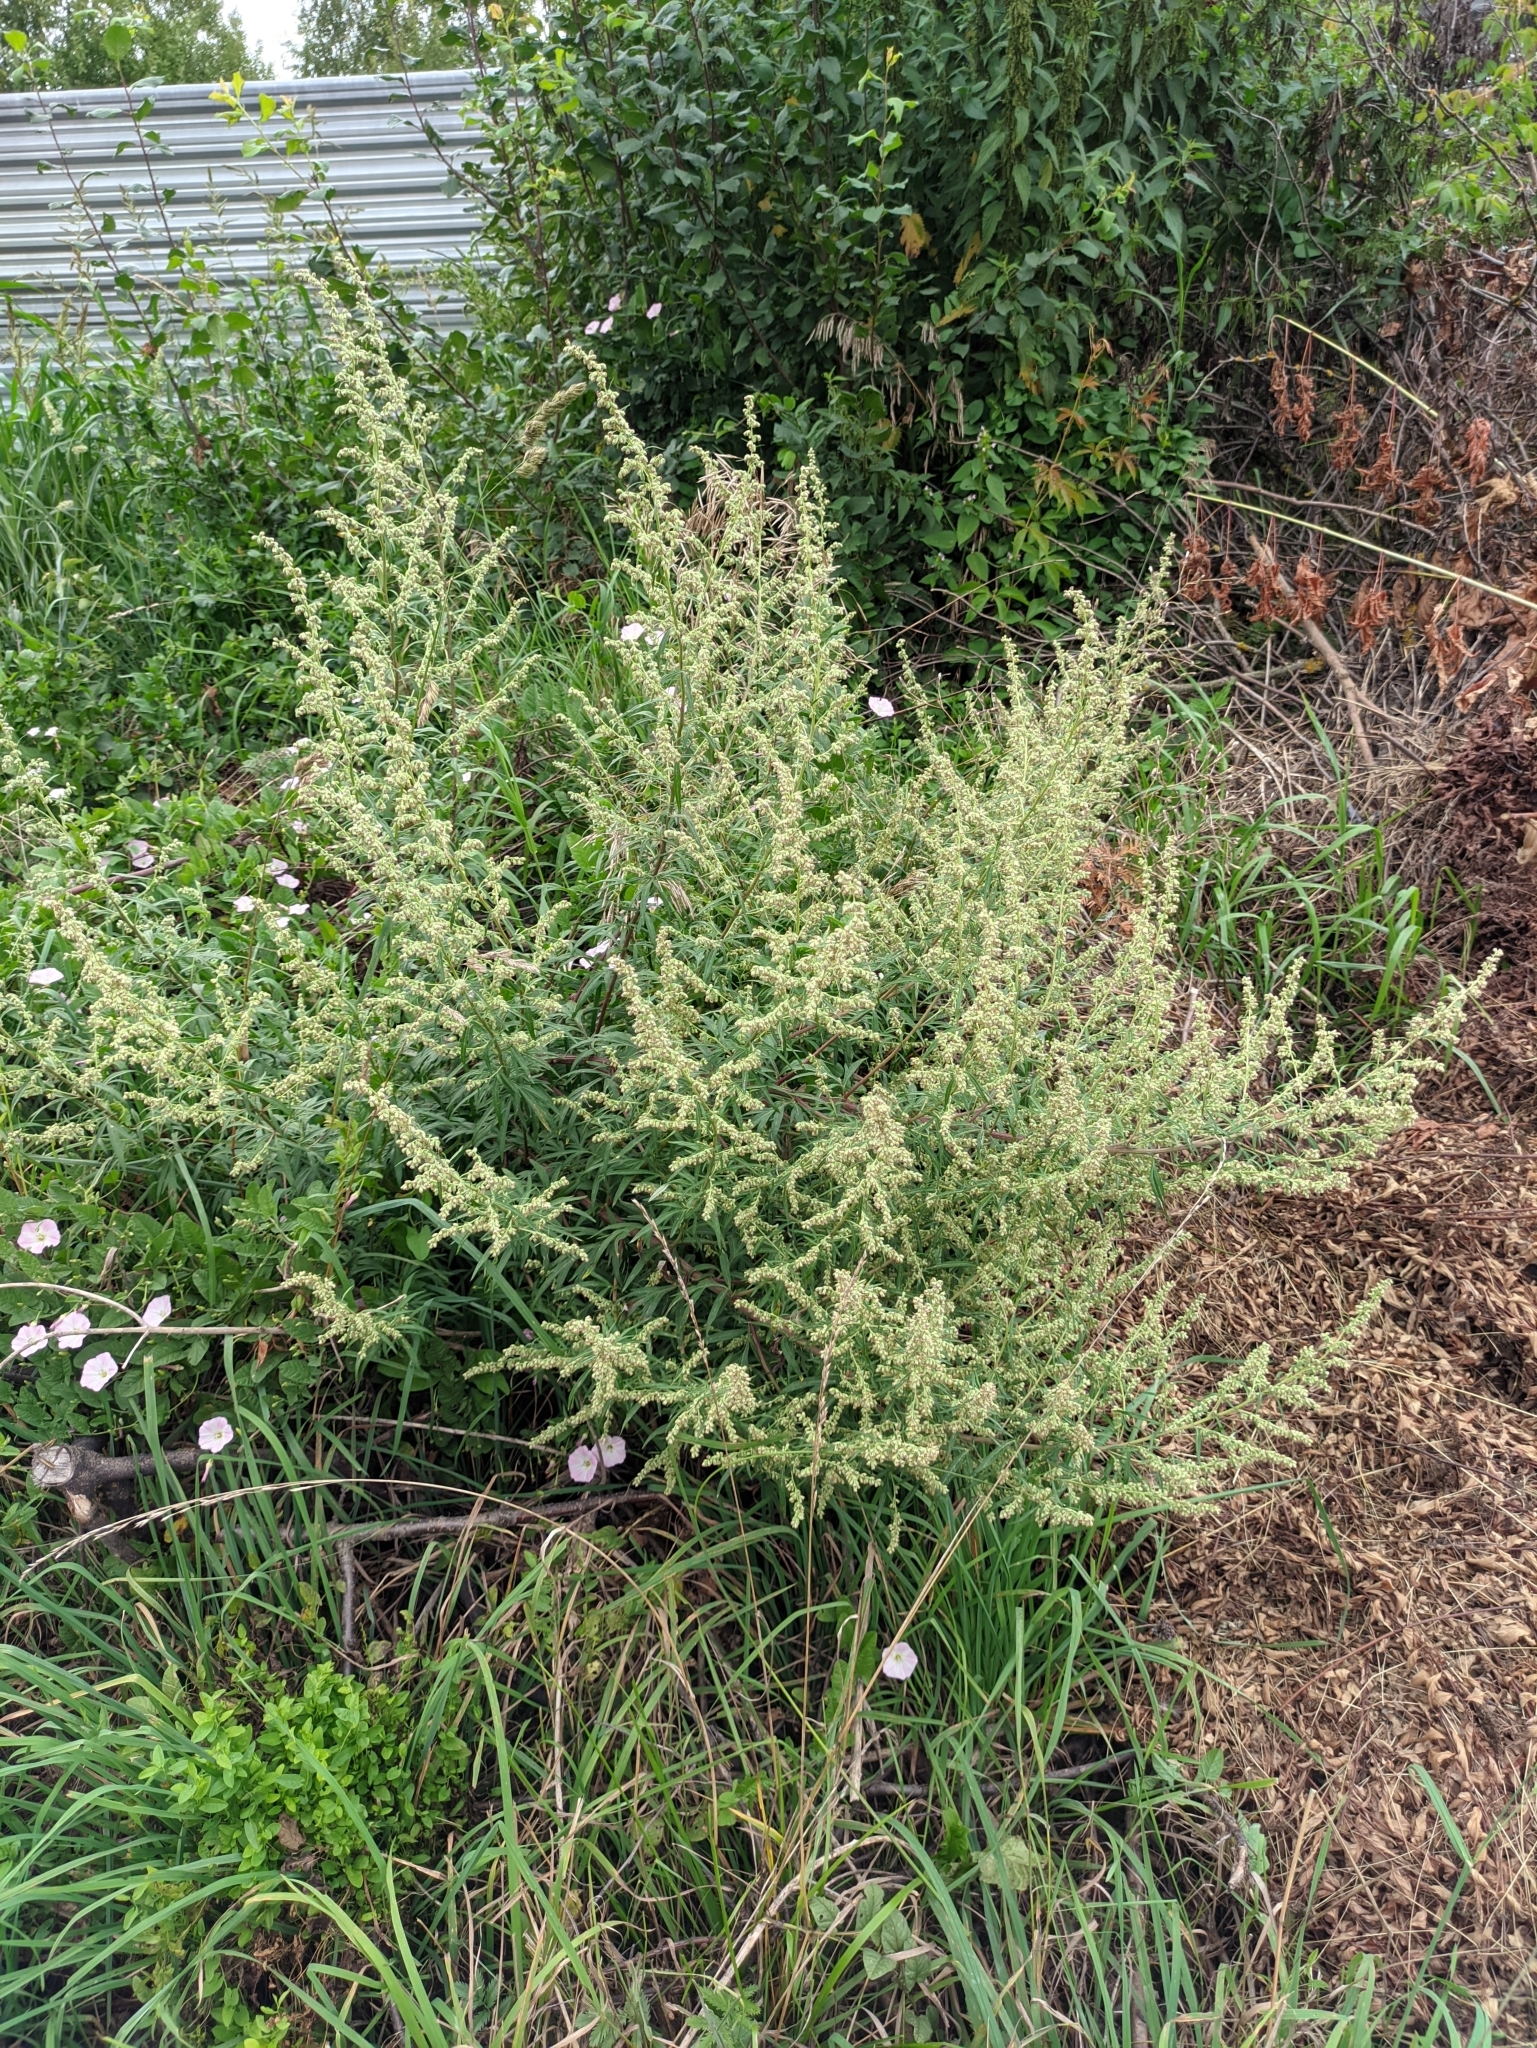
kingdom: Plantae
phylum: Tracheophyta
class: Magnoliopsida
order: Asterales
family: Asteraceae
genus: Artemisia
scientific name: Artemisia vulgaris
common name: Mugwort
